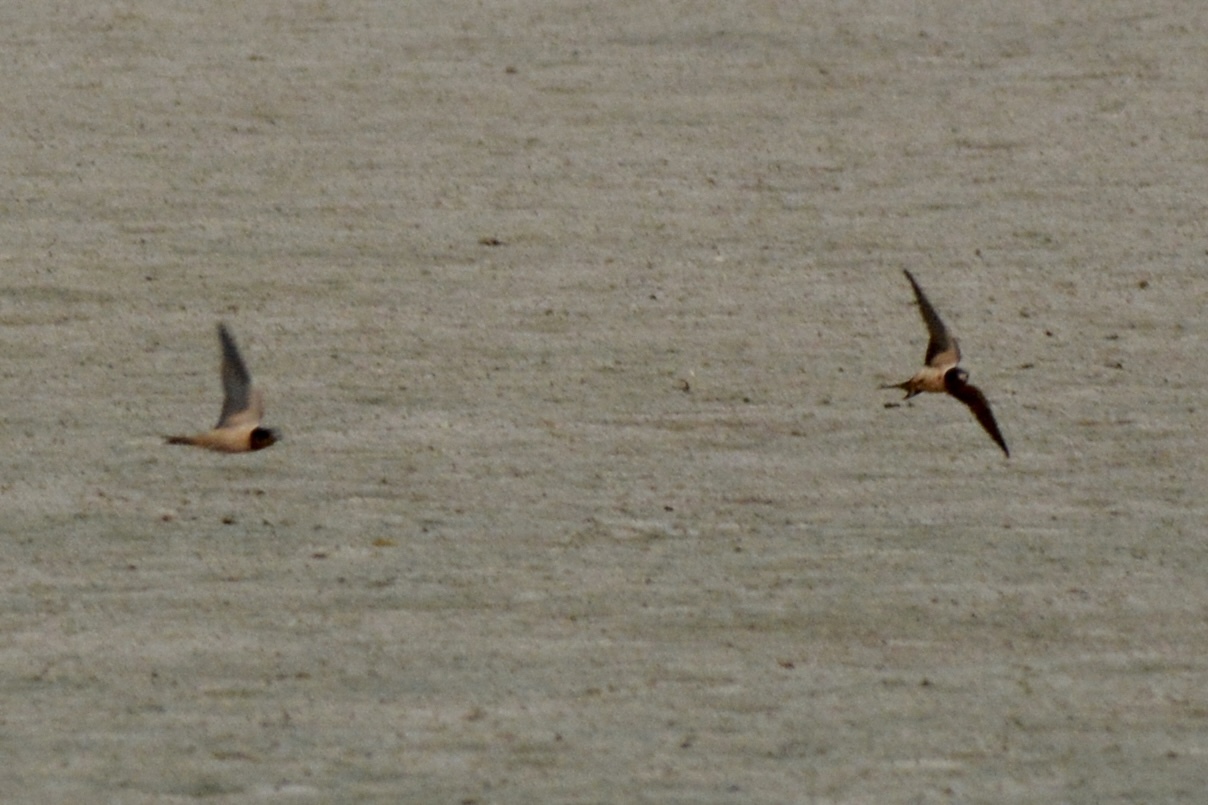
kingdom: Animalia
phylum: Chordata
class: Aves
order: Passeriformes
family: Hirundinidae
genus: Hirundo
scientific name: Hirundo rustica
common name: Barn swallow
